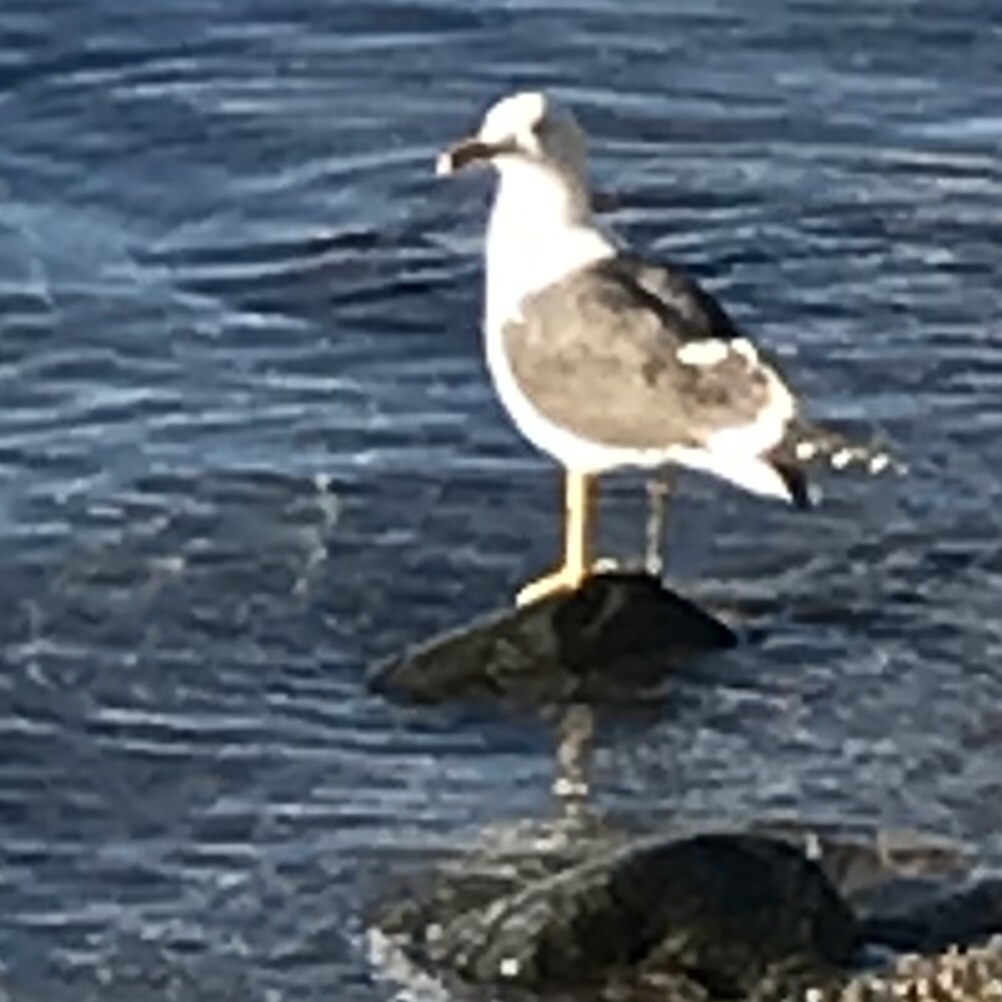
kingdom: Animalia
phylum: Chordata
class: Aves
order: Charadriiformes
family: Laridae
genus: Larus
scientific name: Larus fuscus
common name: Lesser black-backed gull
